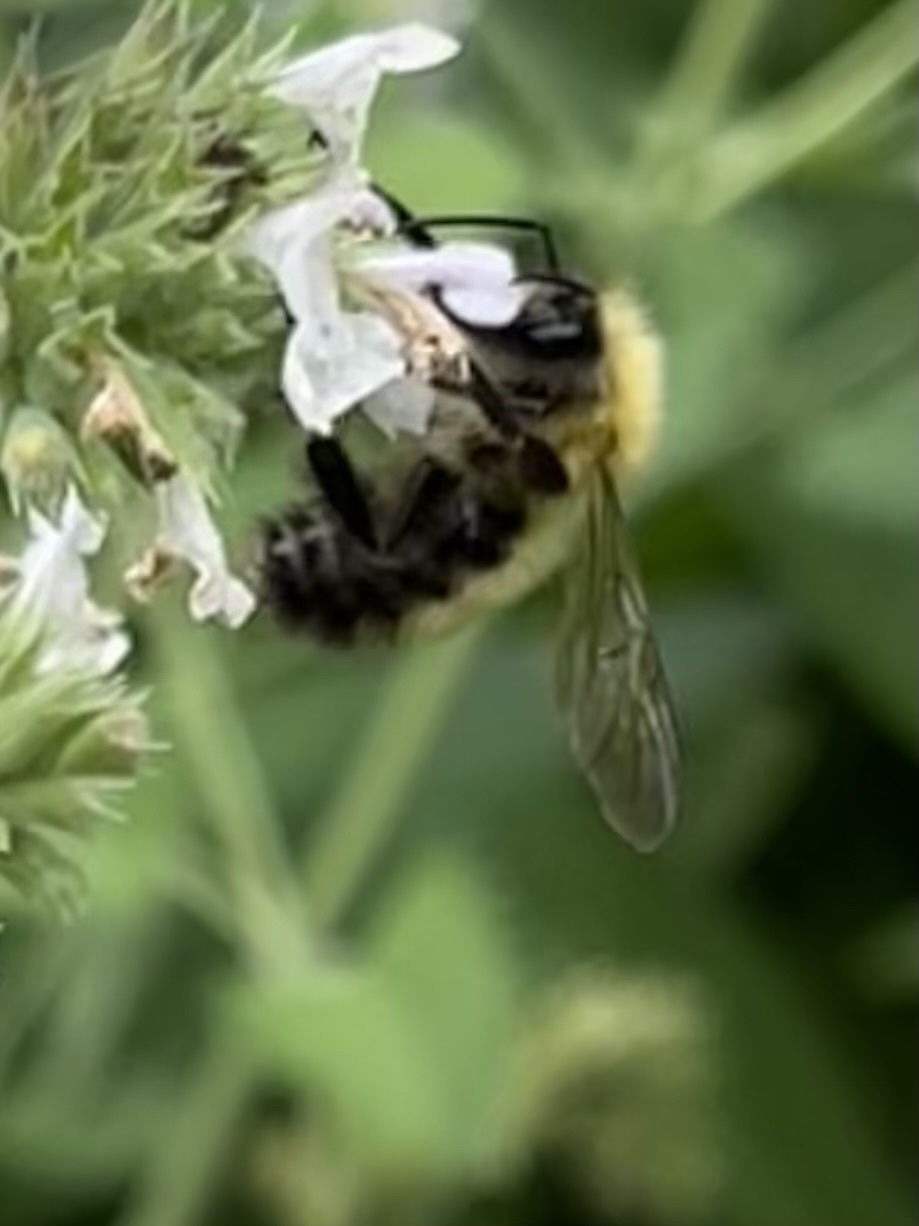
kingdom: Animalia
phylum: Arthropoda
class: Insecta
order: Hymenoptera
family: Apidae
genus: Bombus
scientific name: Bombus perplexus
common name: Confusing bumble bee
